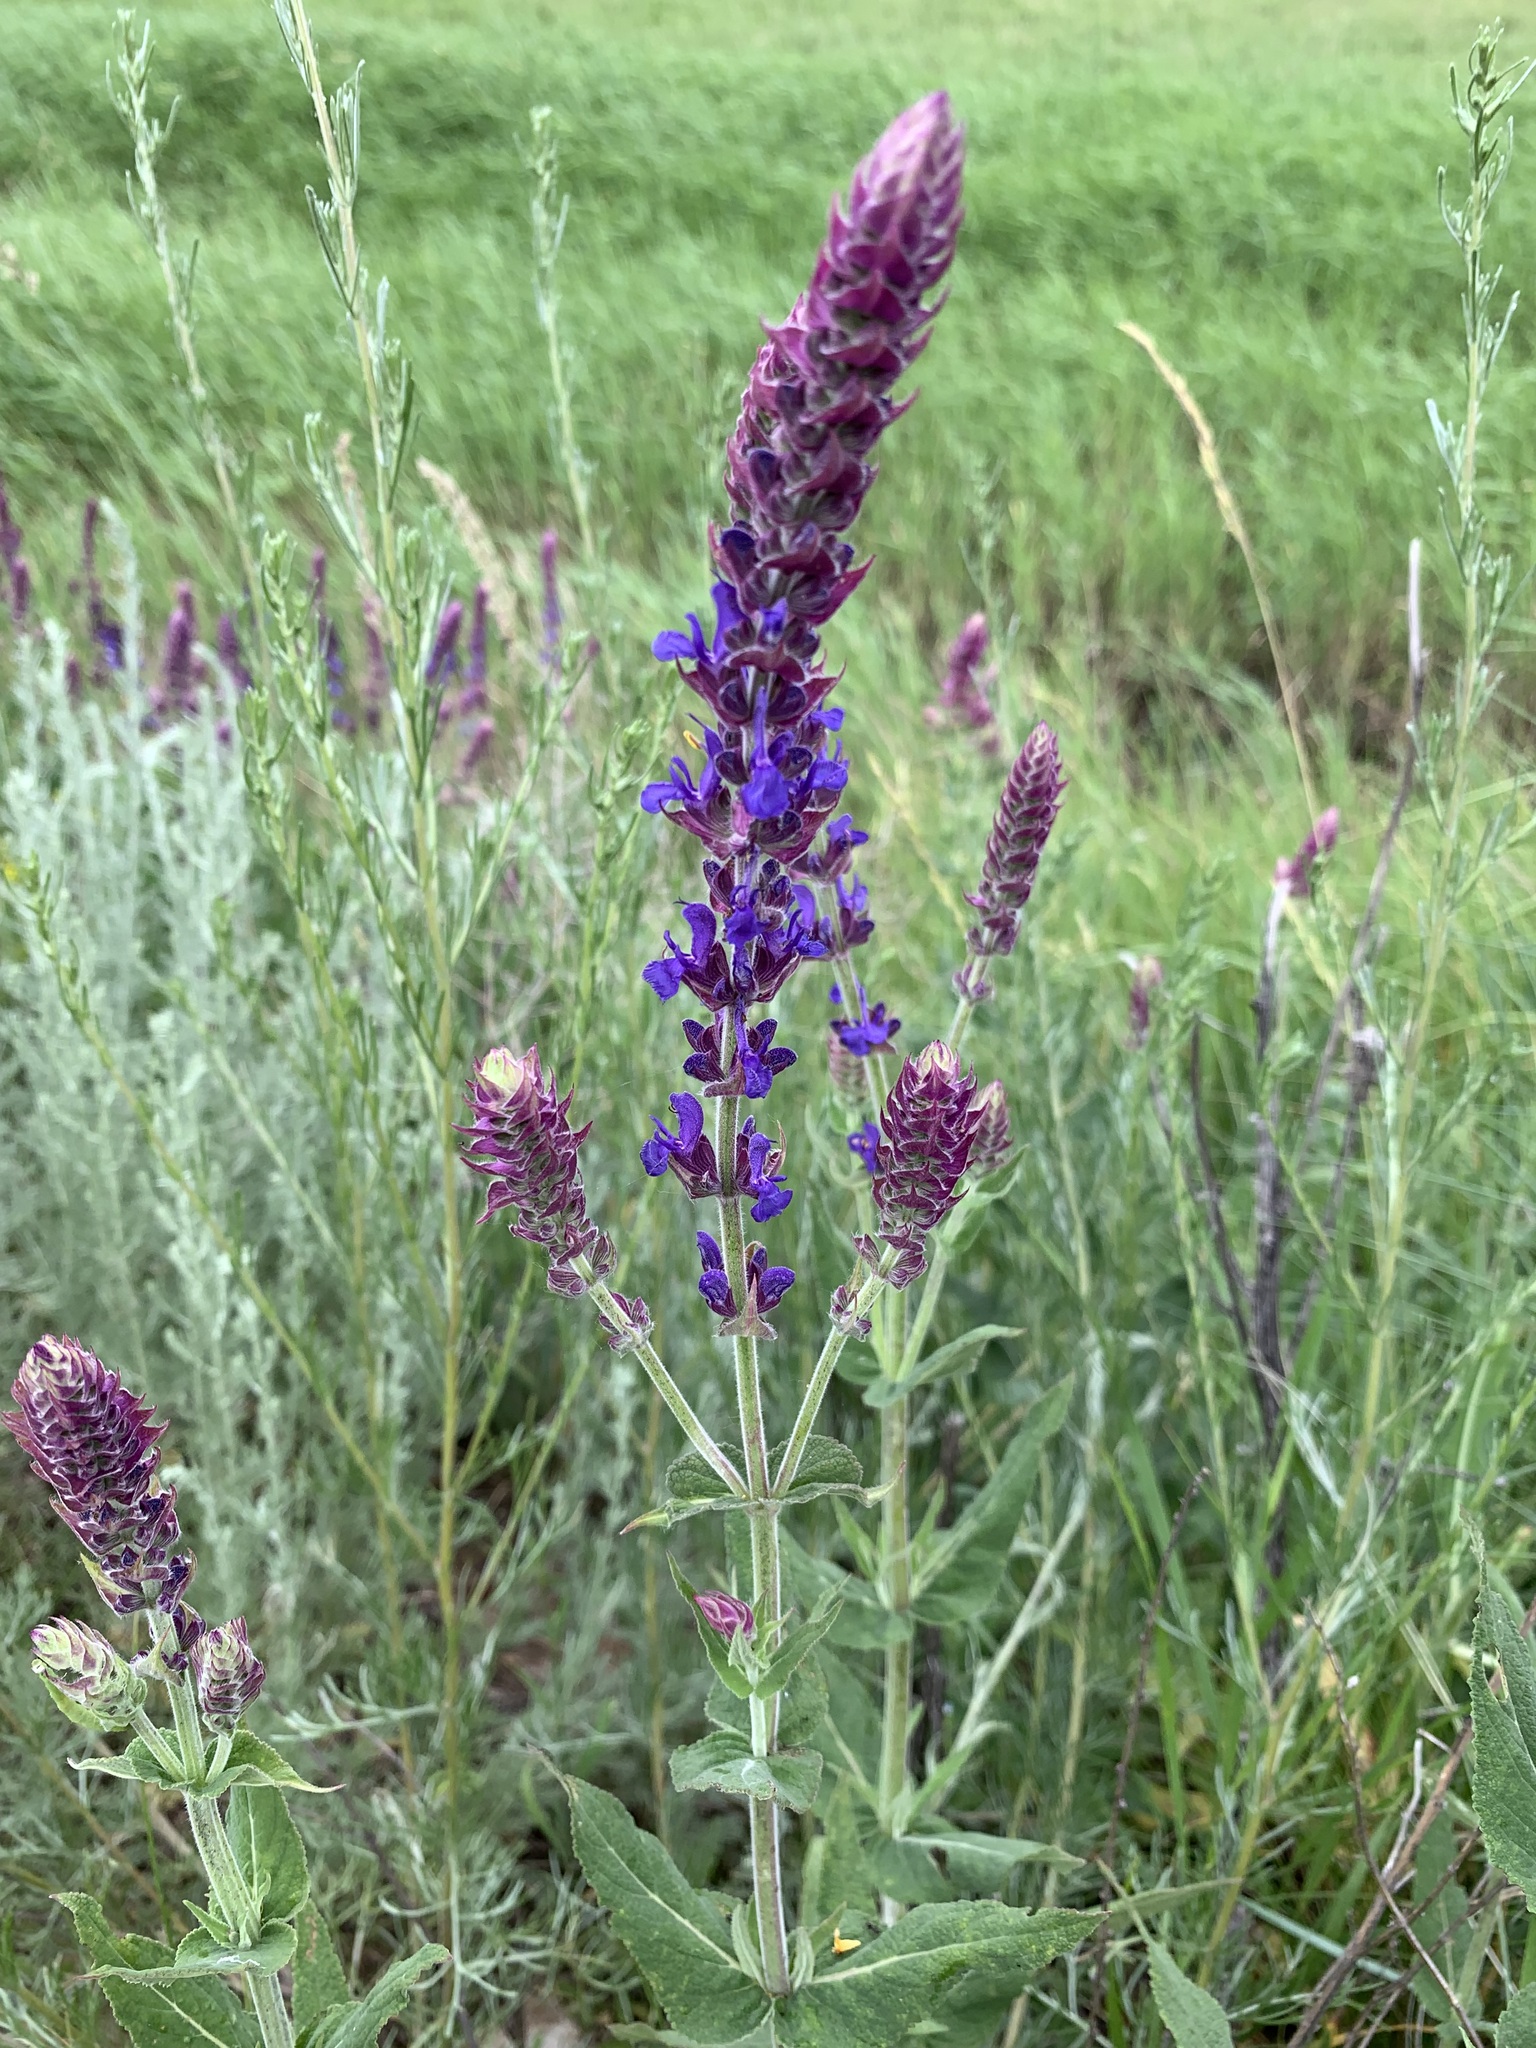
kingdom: Plantae
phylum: Tracheophyta
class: Magnoliopsida
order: Lamiales
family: Lamiaceae
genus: Salvia
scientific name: Salvia nemorosa
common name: Balkan clary
